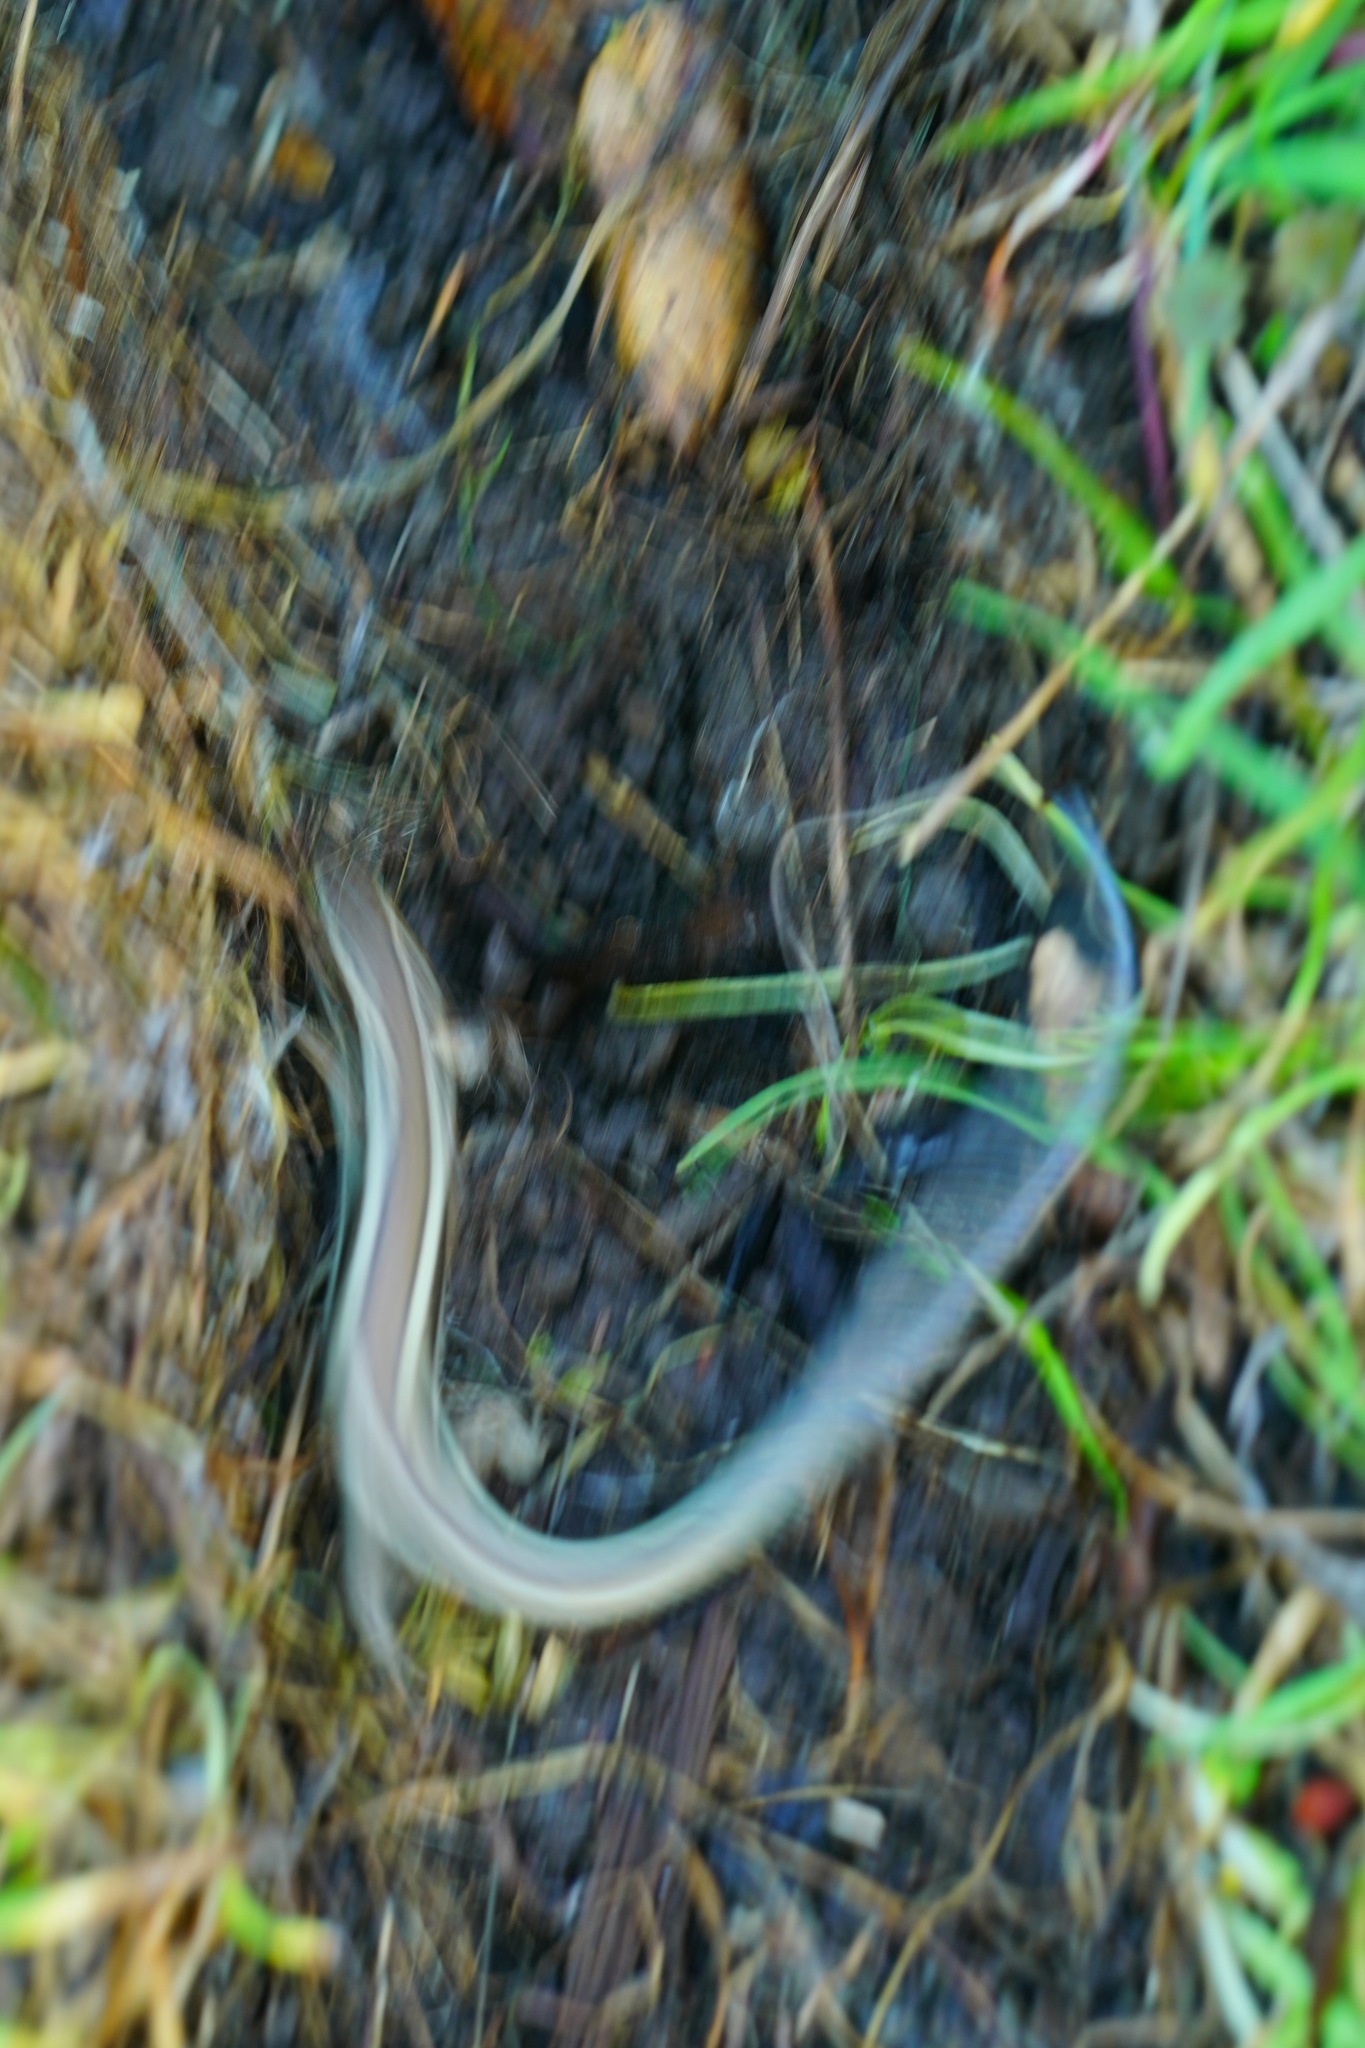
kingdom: Animalia
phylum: Chordata
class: Squamata
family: Scincidae
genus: Plestiodon
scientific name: Plestiodon skiltonianus
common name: Coronado island skink [interparietalis]
